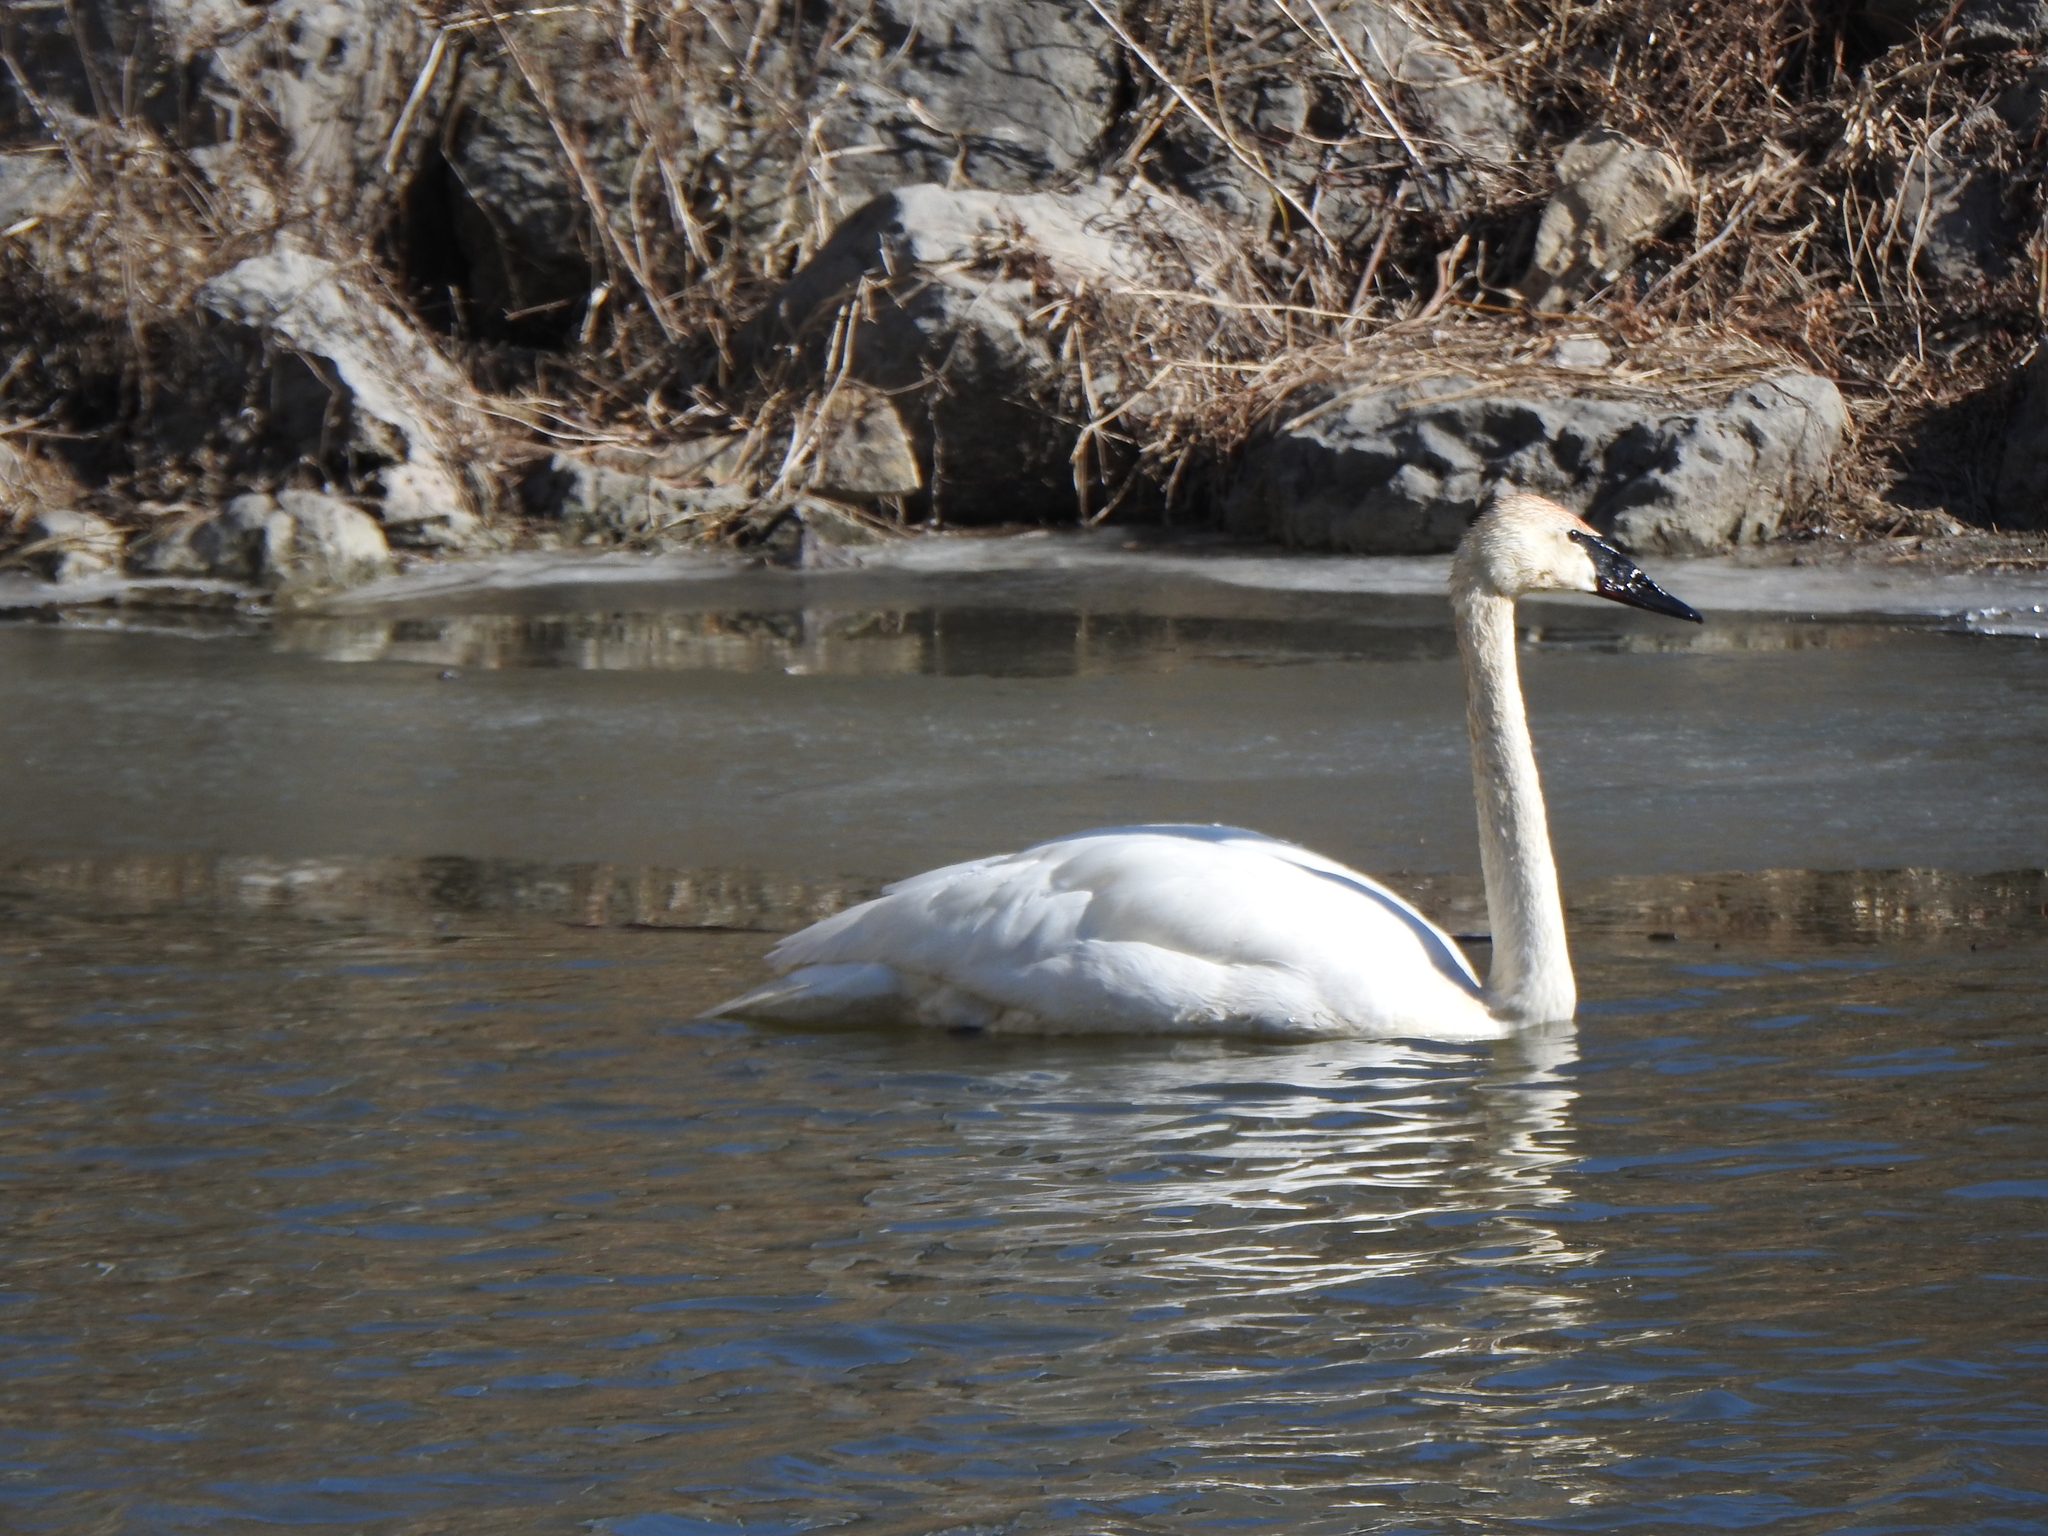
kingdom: Animalia
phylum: Chordata
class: Aves
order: Anseriformes
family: Anatidae
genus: Cygnus
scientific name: Cygnus buccinator
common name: Trumpeter swan
